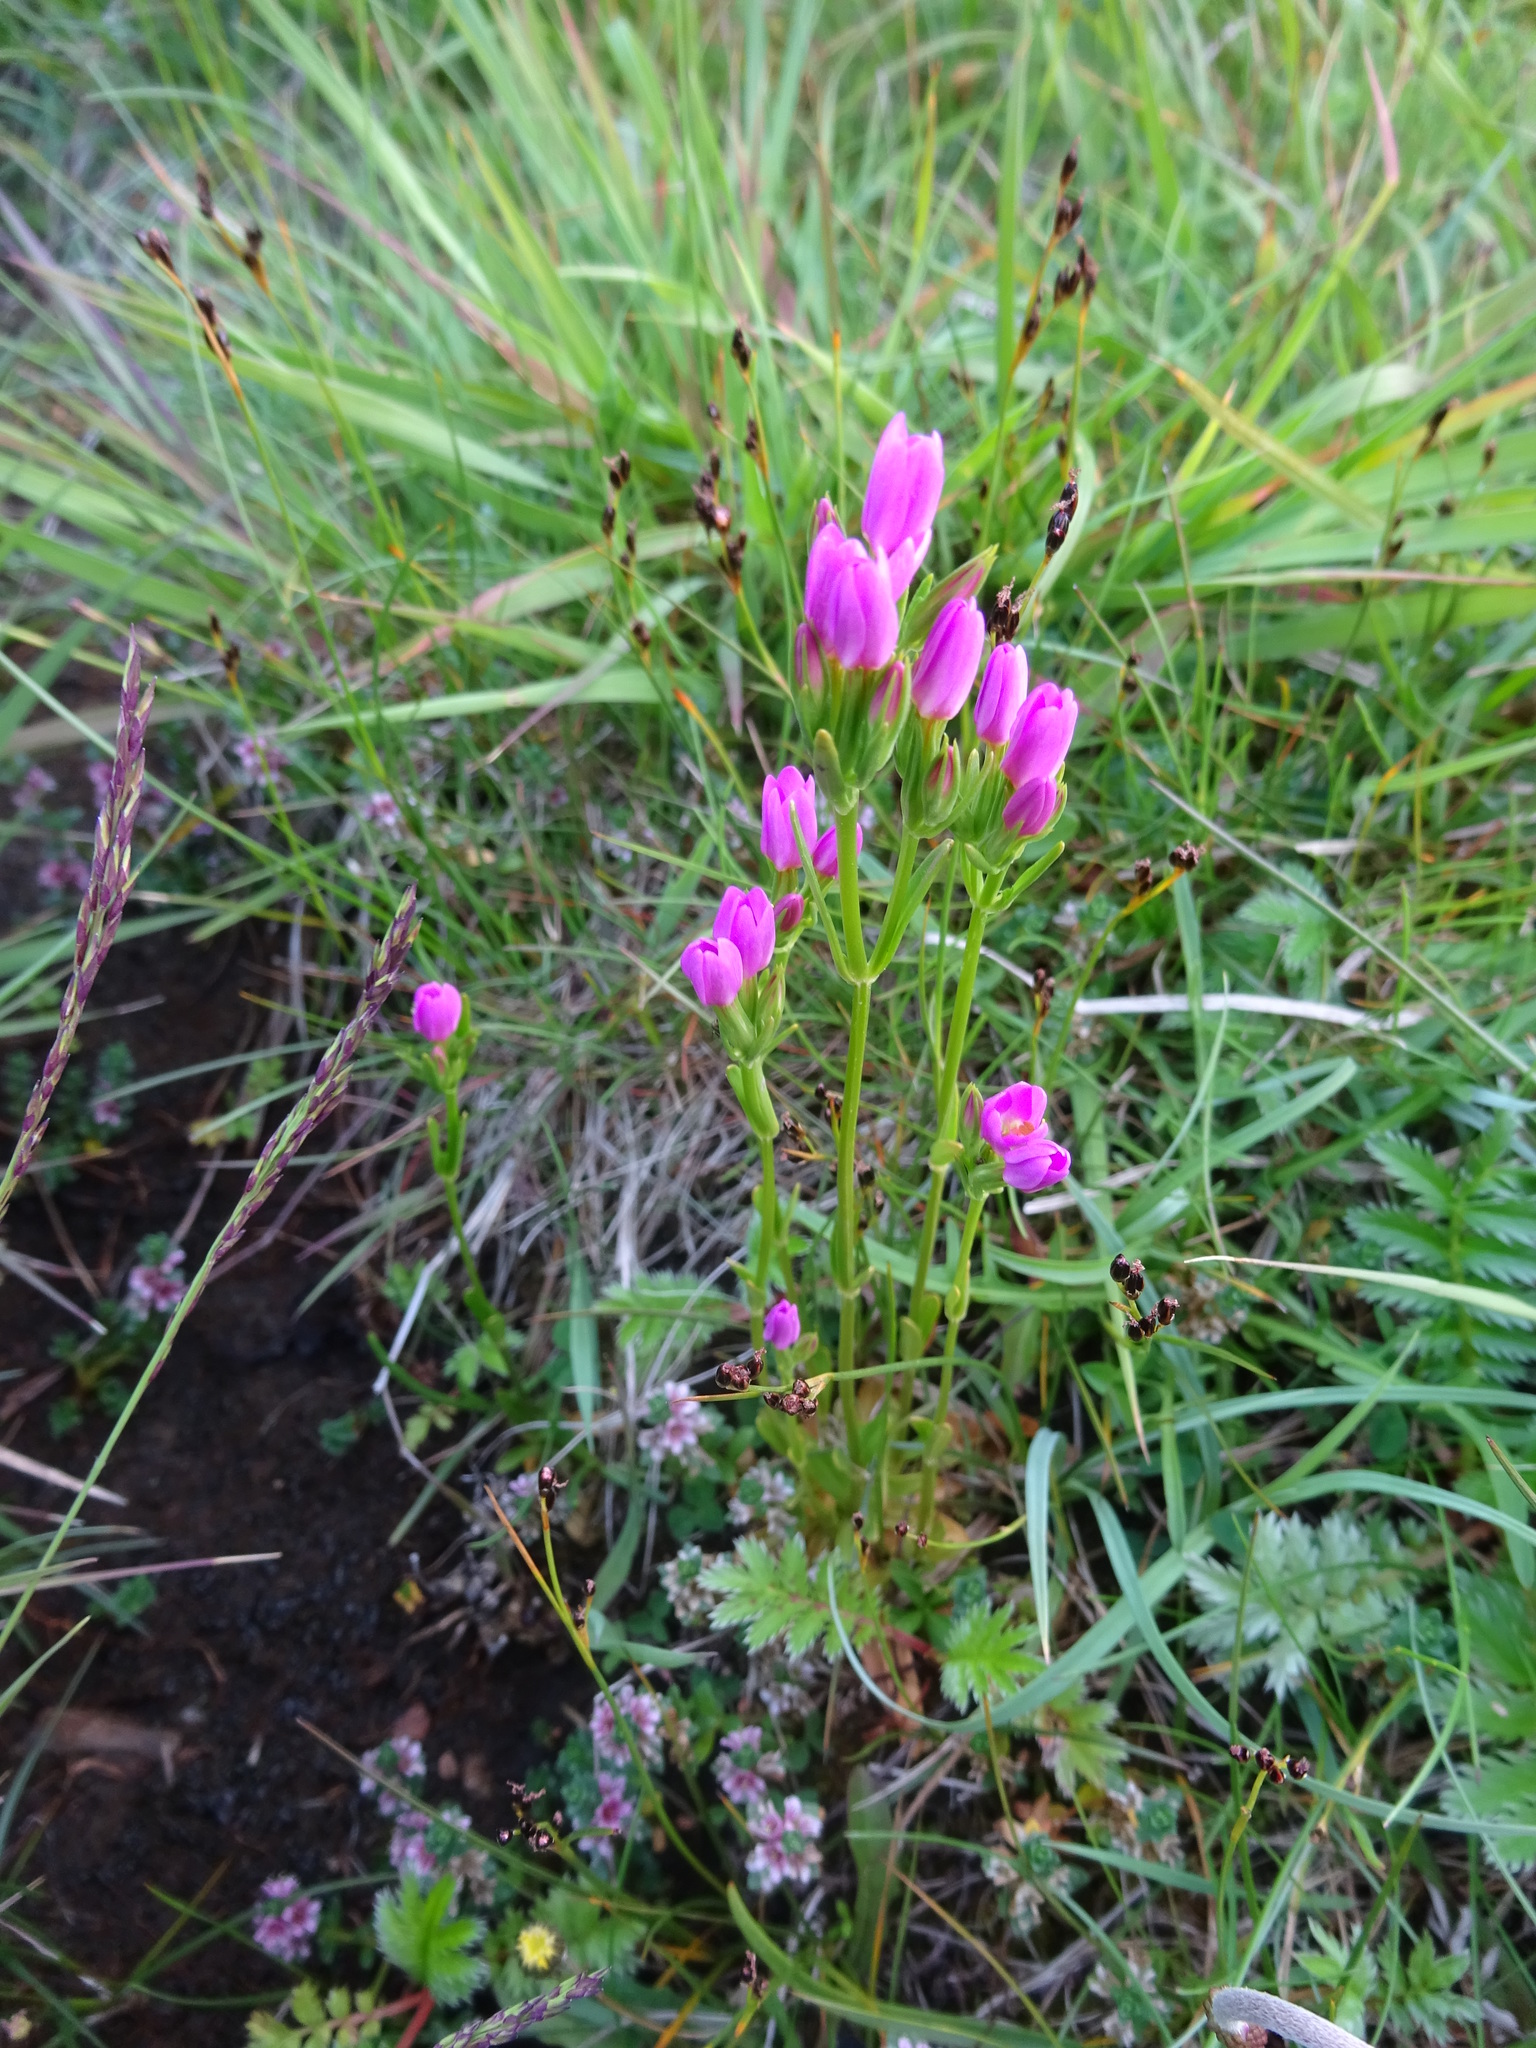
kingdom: Plantae
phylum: Tracheophyta
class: Magnoliopsida
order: Gentianales
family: Gentianaceae
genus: Centaurium
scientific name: Centaurium erythraea
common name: Common centaury
